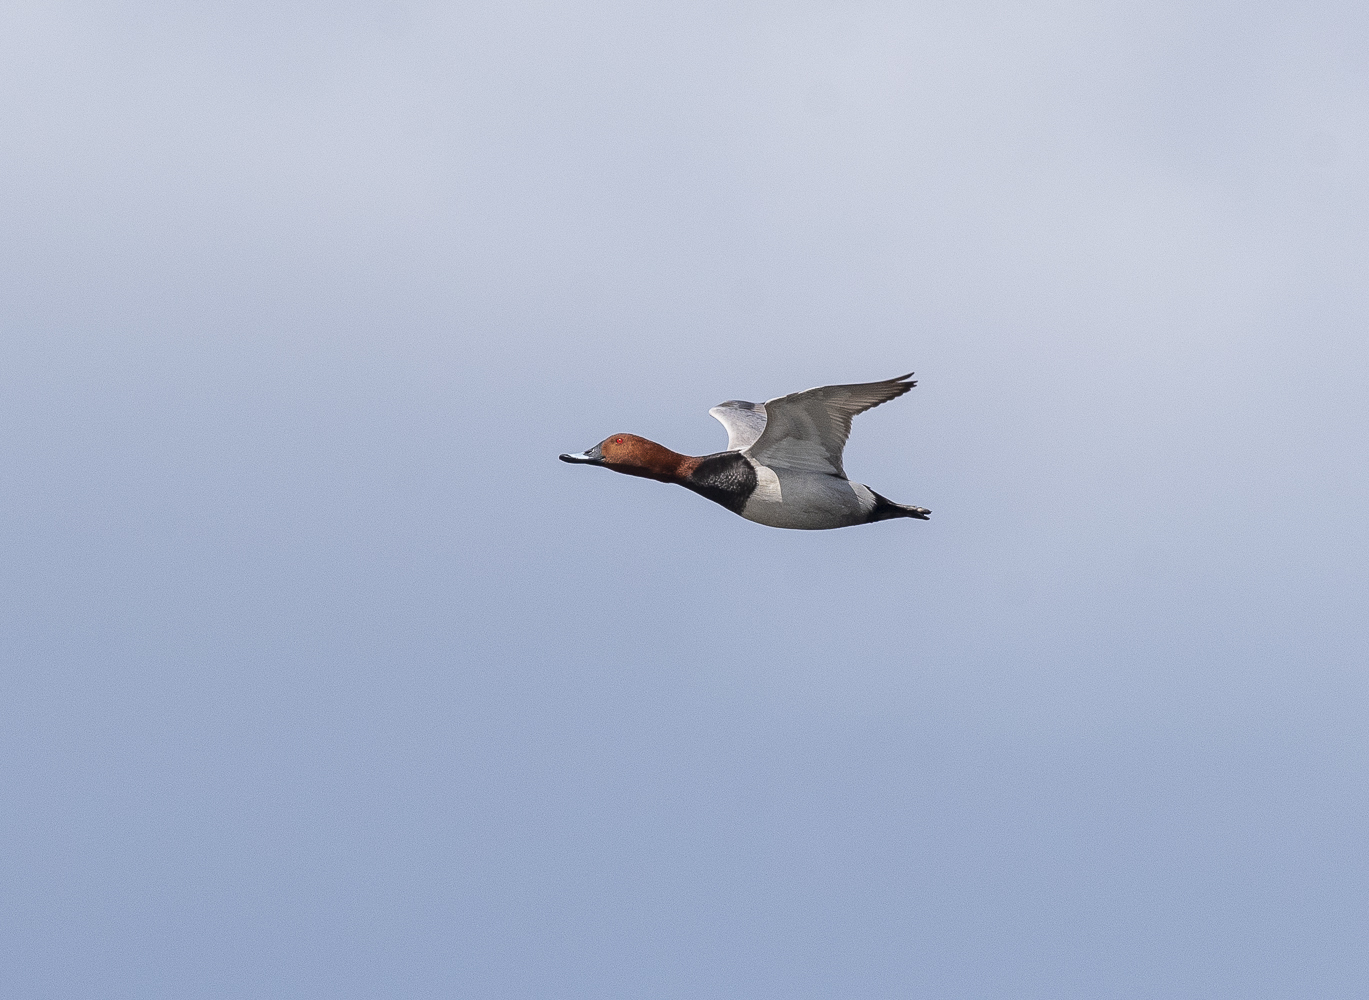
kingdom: Animalia
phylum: Chordata
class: Aves
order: Anseriformes
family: Anatidae
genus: Aythya
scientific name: Aythya ferina
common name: Common pochard
